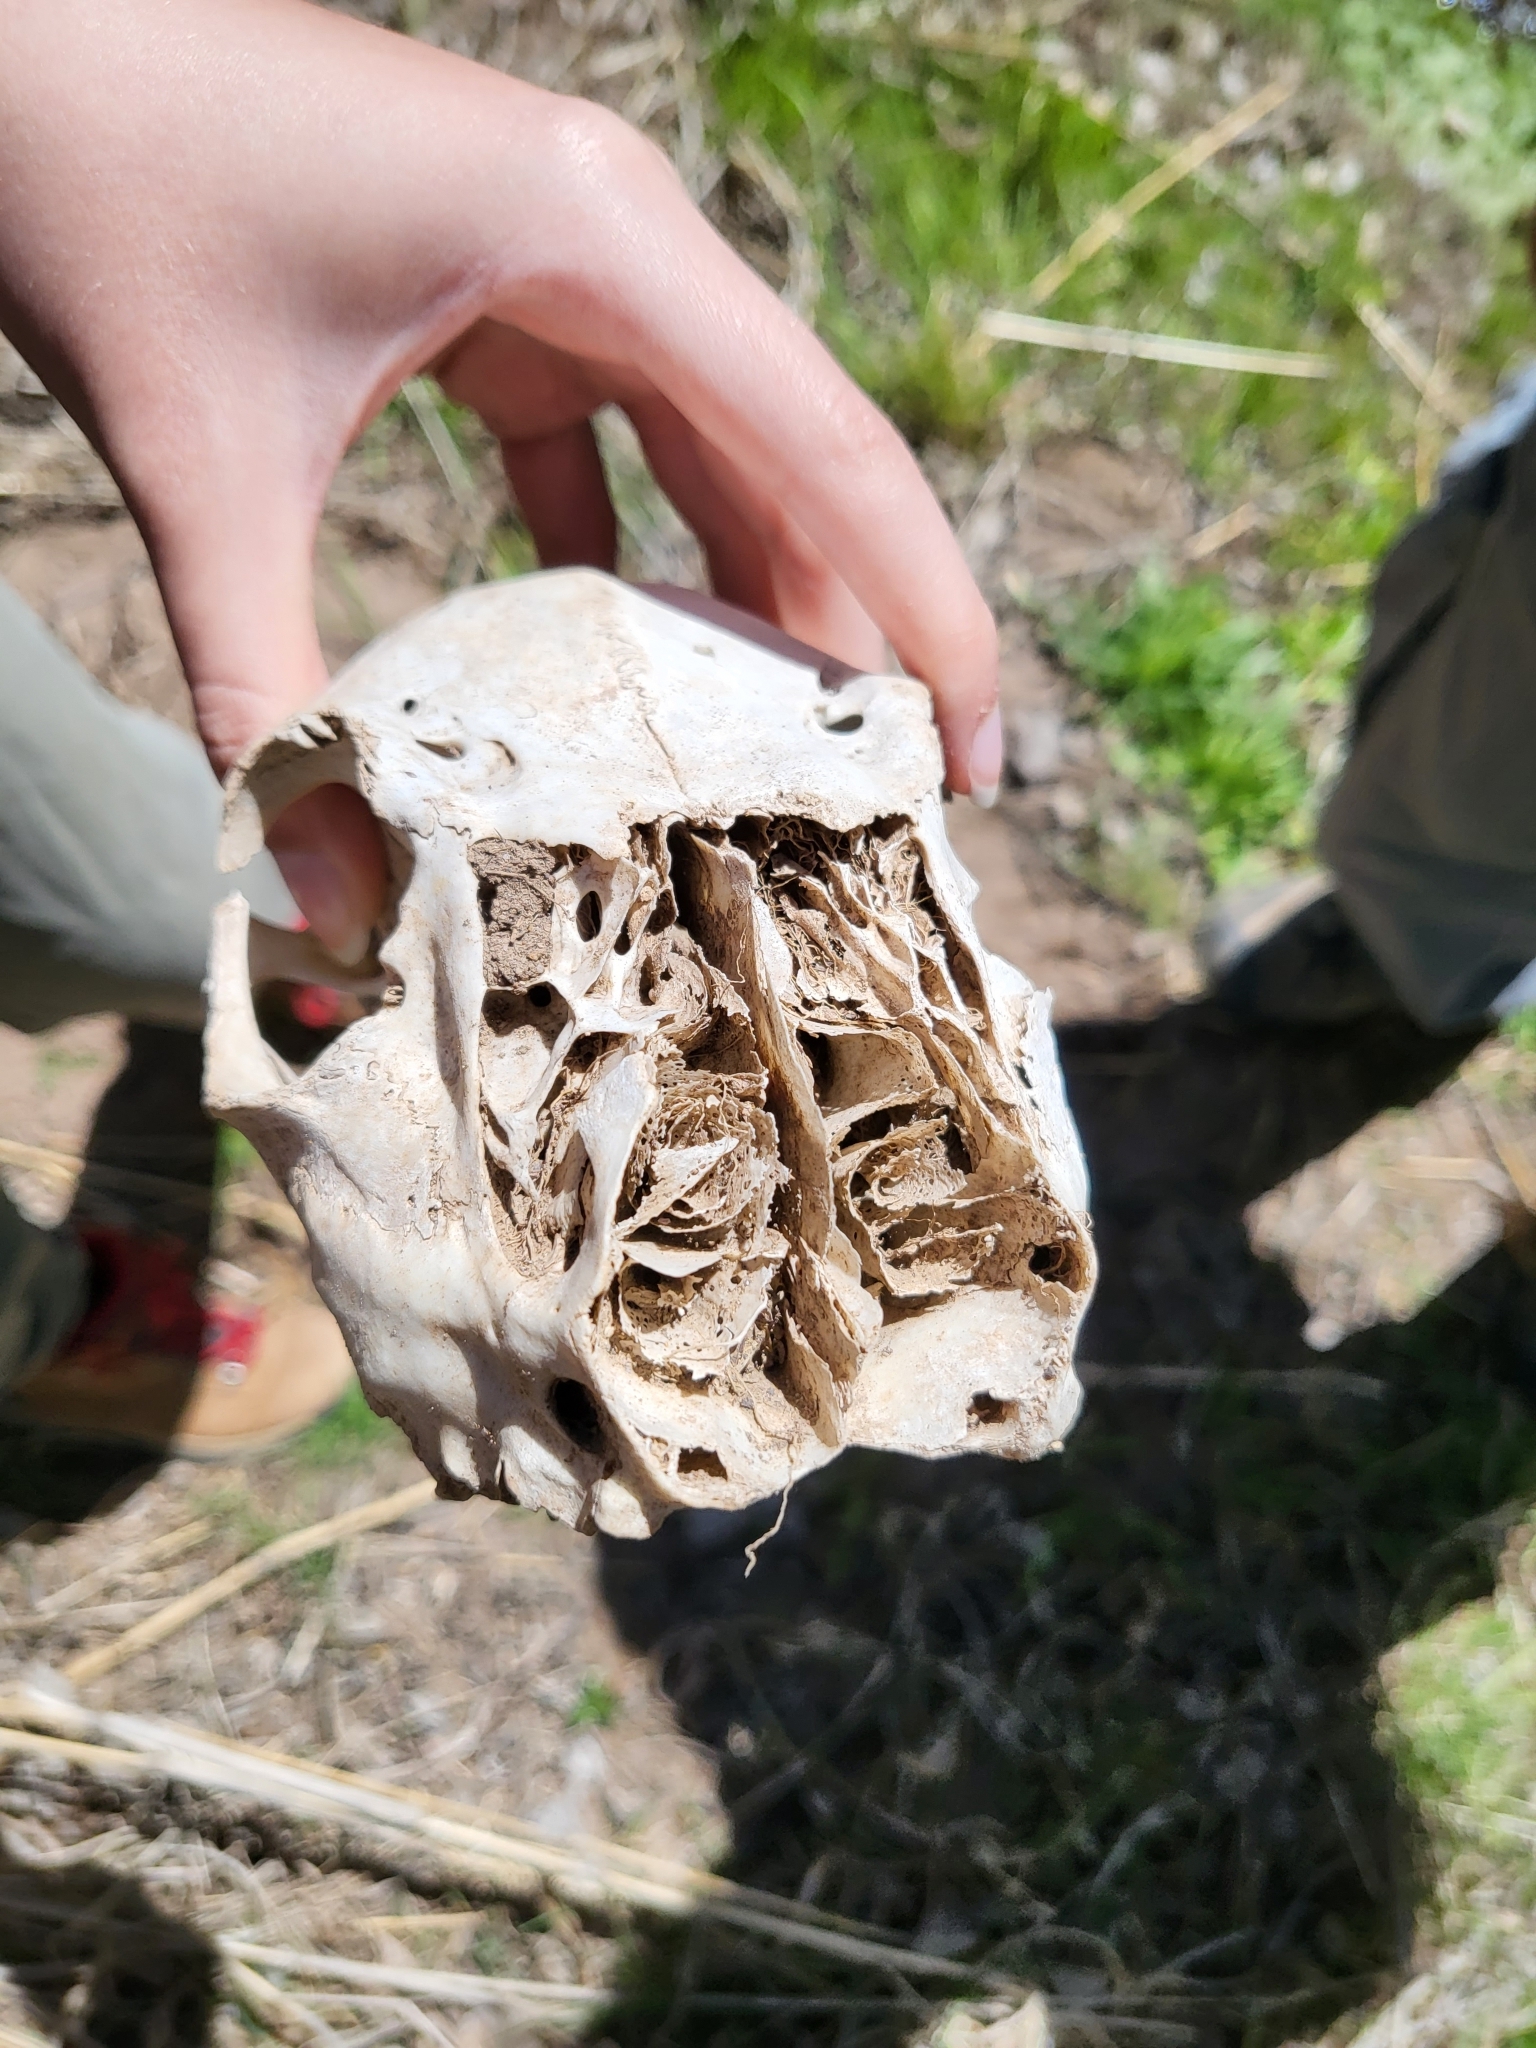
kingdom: Animalia
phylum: Chordata
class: Mammalia
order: Artiodactyla
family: Cervidae
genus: Odocoileus
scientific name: Odocoileus virginianus
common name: White-tailed deer
